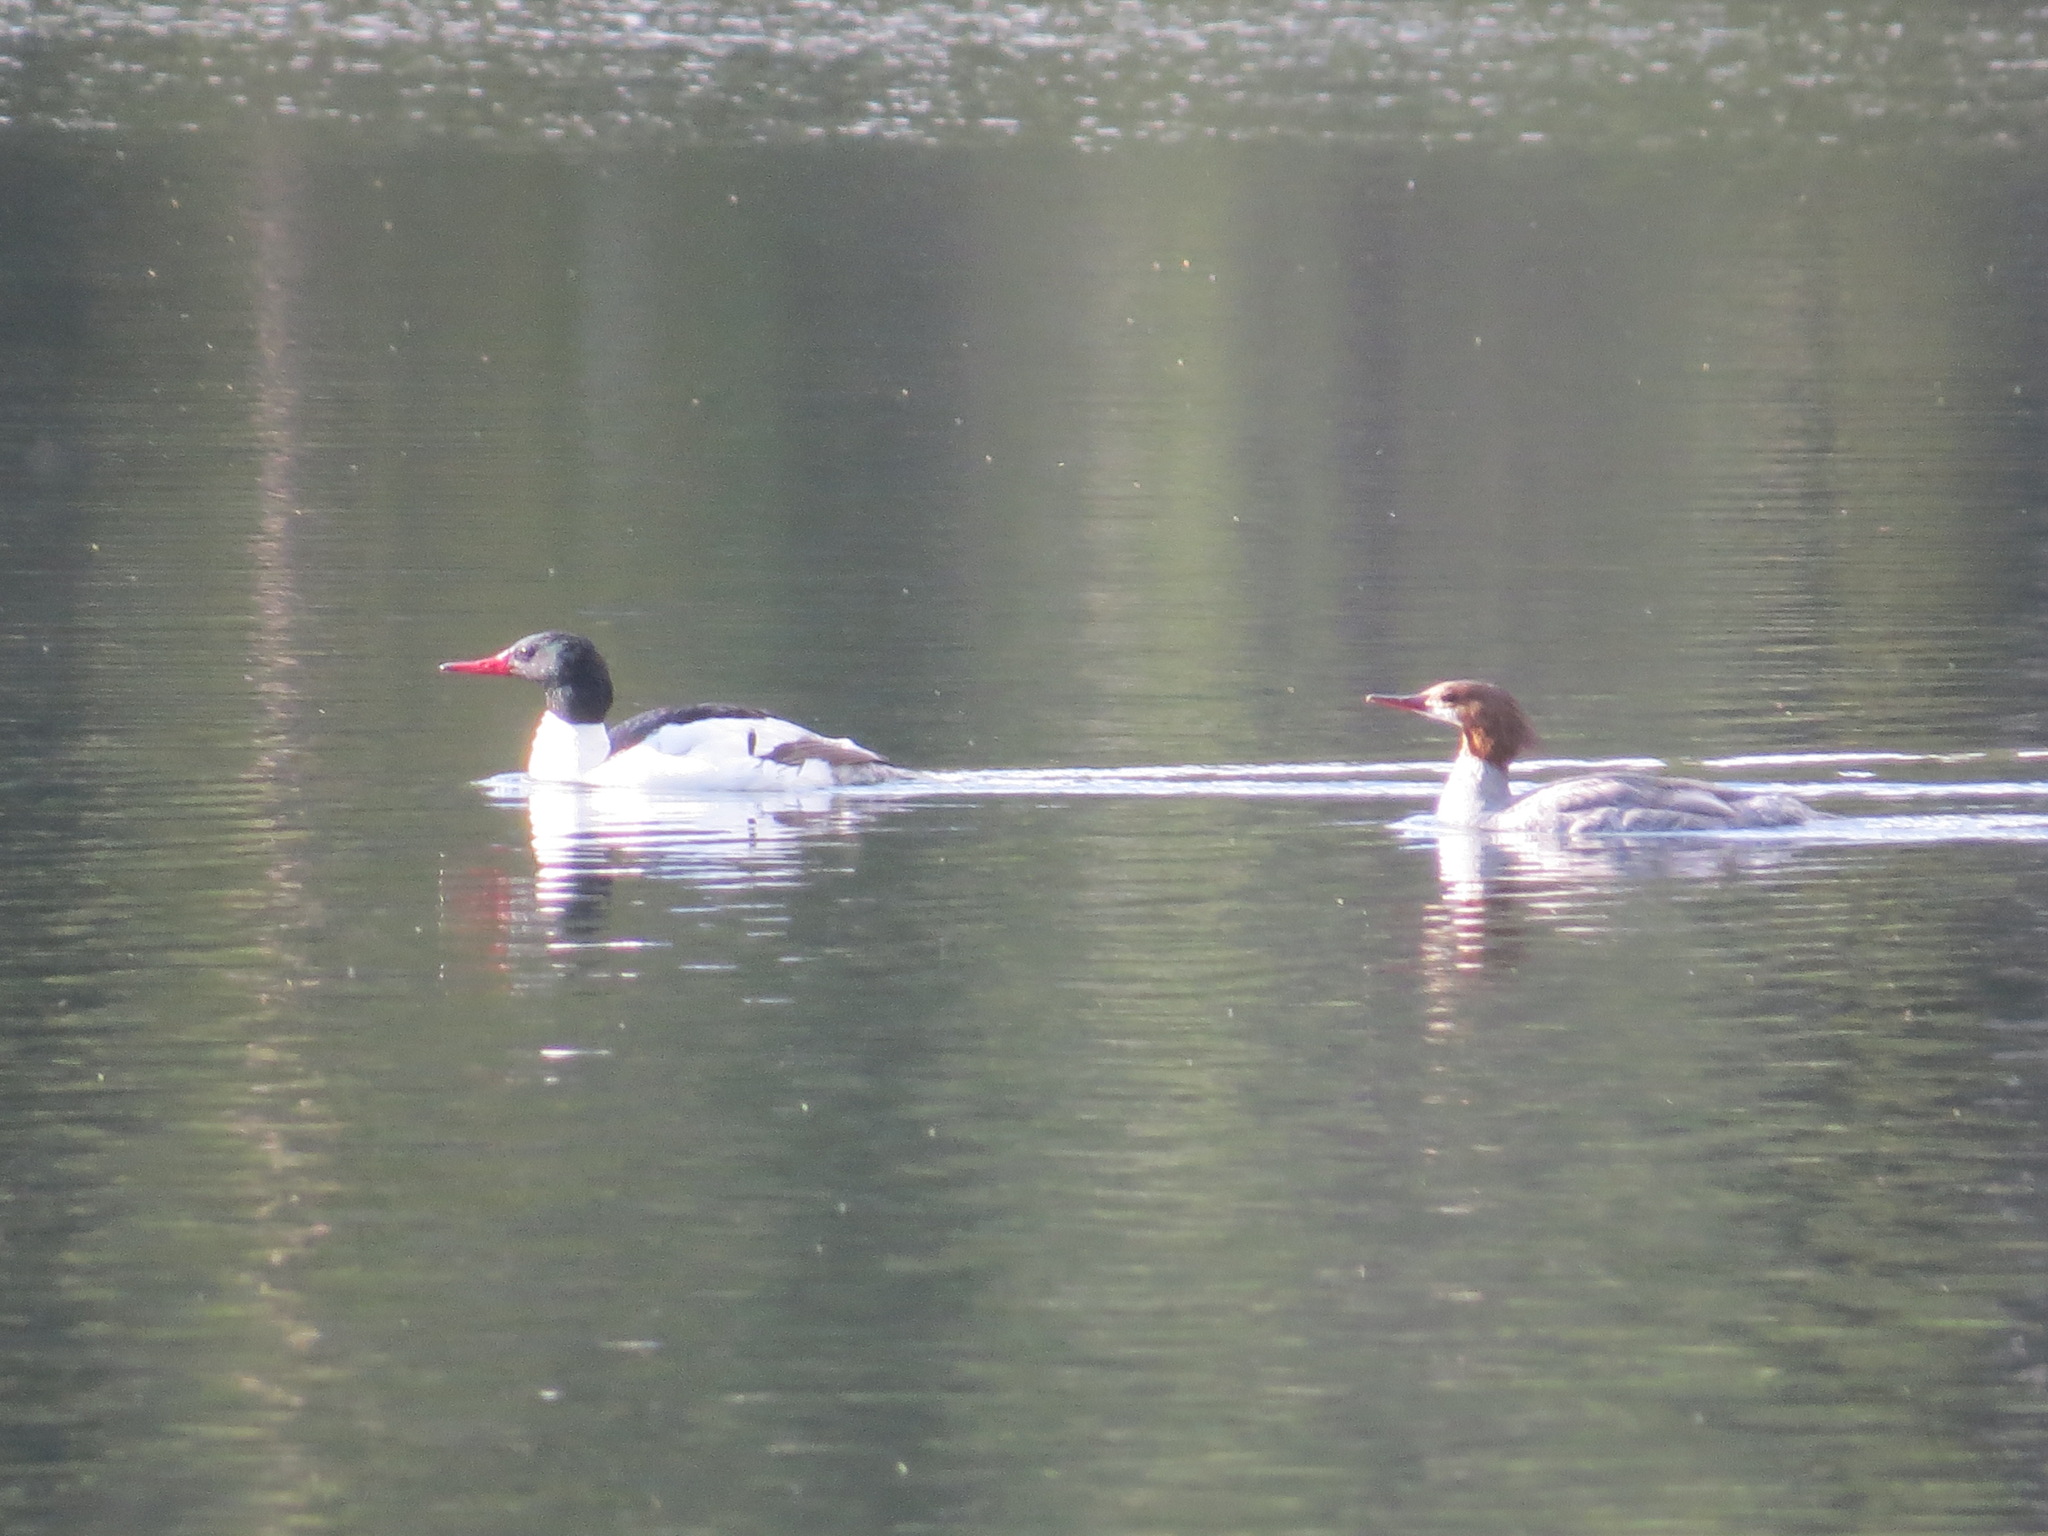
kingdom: Animalia
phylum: Chordata
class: Aves
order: Anseriformes
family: Anatidae
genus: Mergus
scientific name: Mergus merganser
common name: Common merganser
